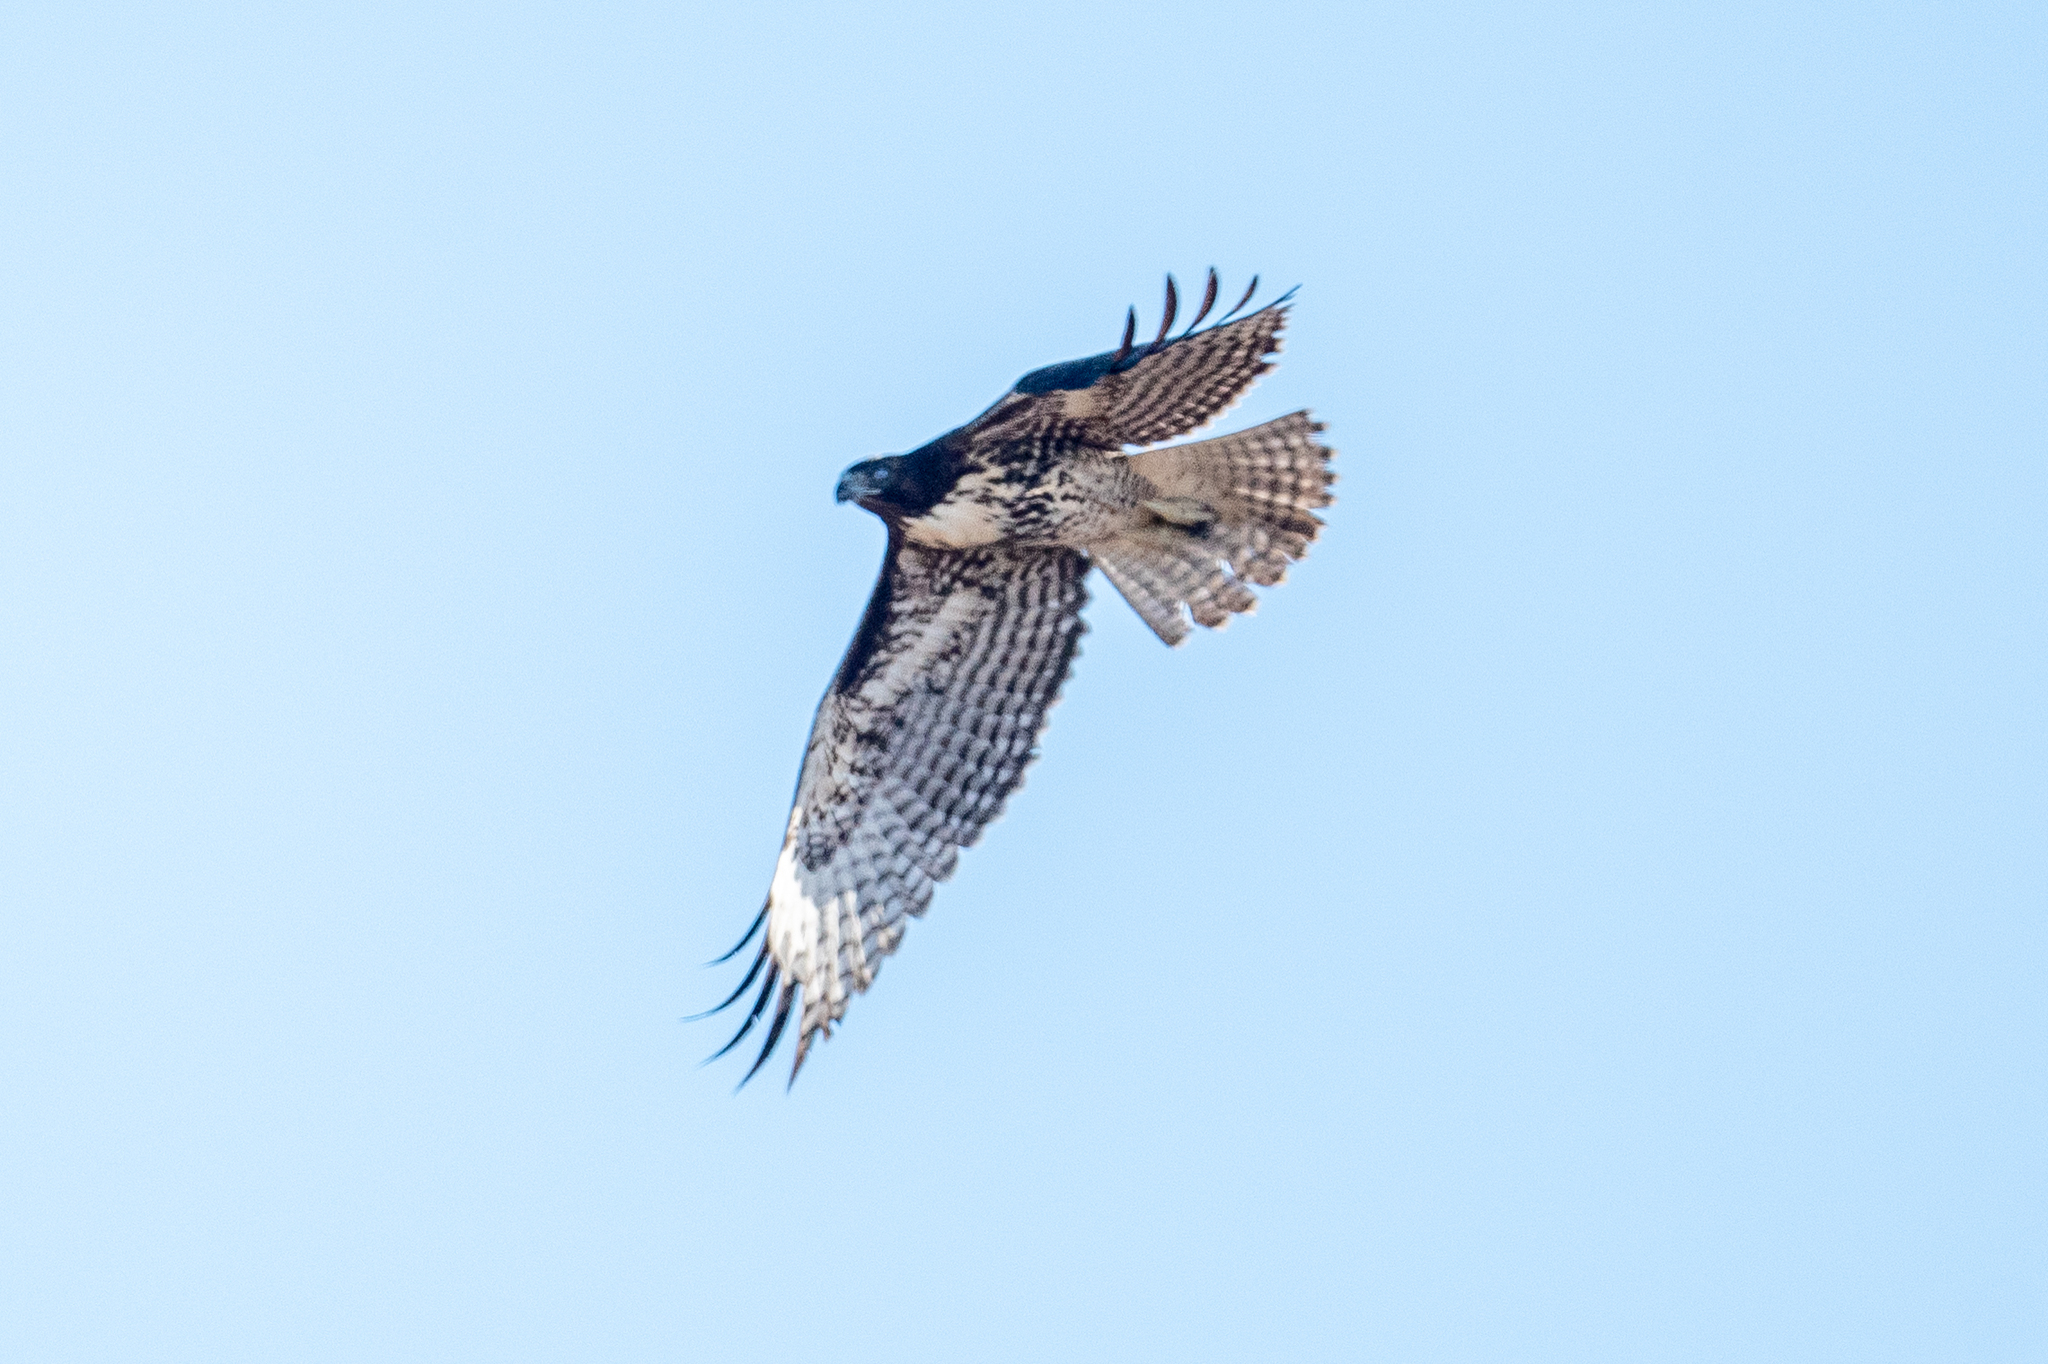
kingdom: Animalia
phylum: Chordata
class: Aves
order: Accipitriformes
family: Accipitridae
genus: Buteo
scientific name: Buteo jamaicensis
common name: Red-tailed hawk
